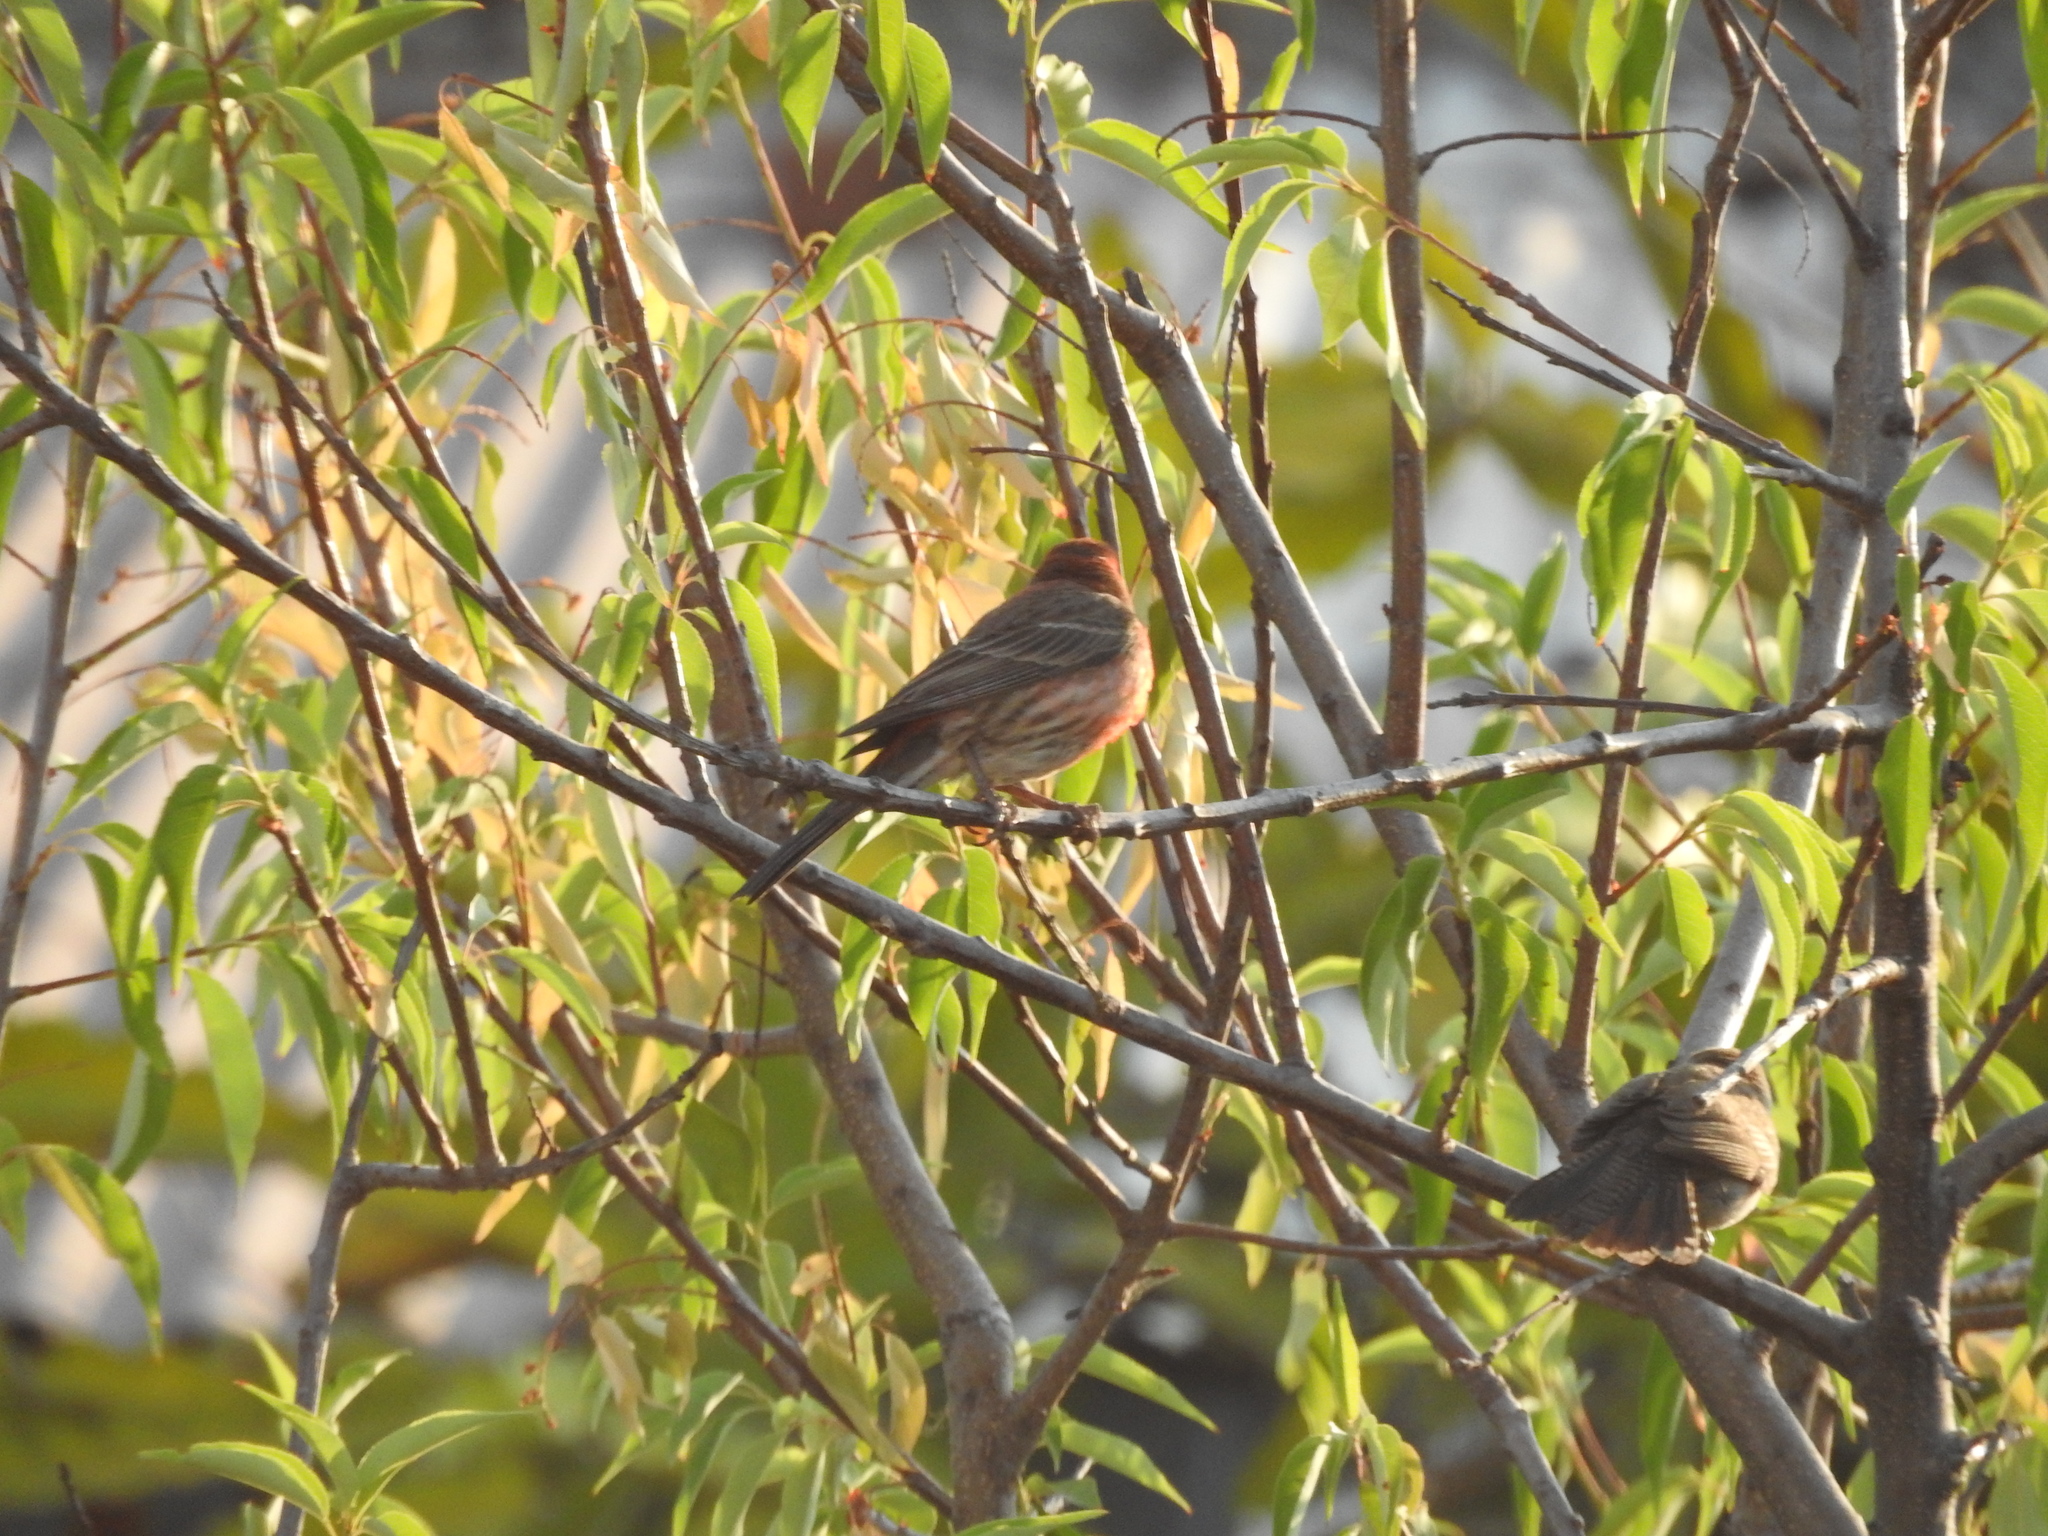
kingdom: Animalia
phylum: Chordata
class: Aves
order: Passeriformes
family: Fringillidae
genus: Haemorhous
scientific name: Haemorhous mexicanus
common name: House finch
